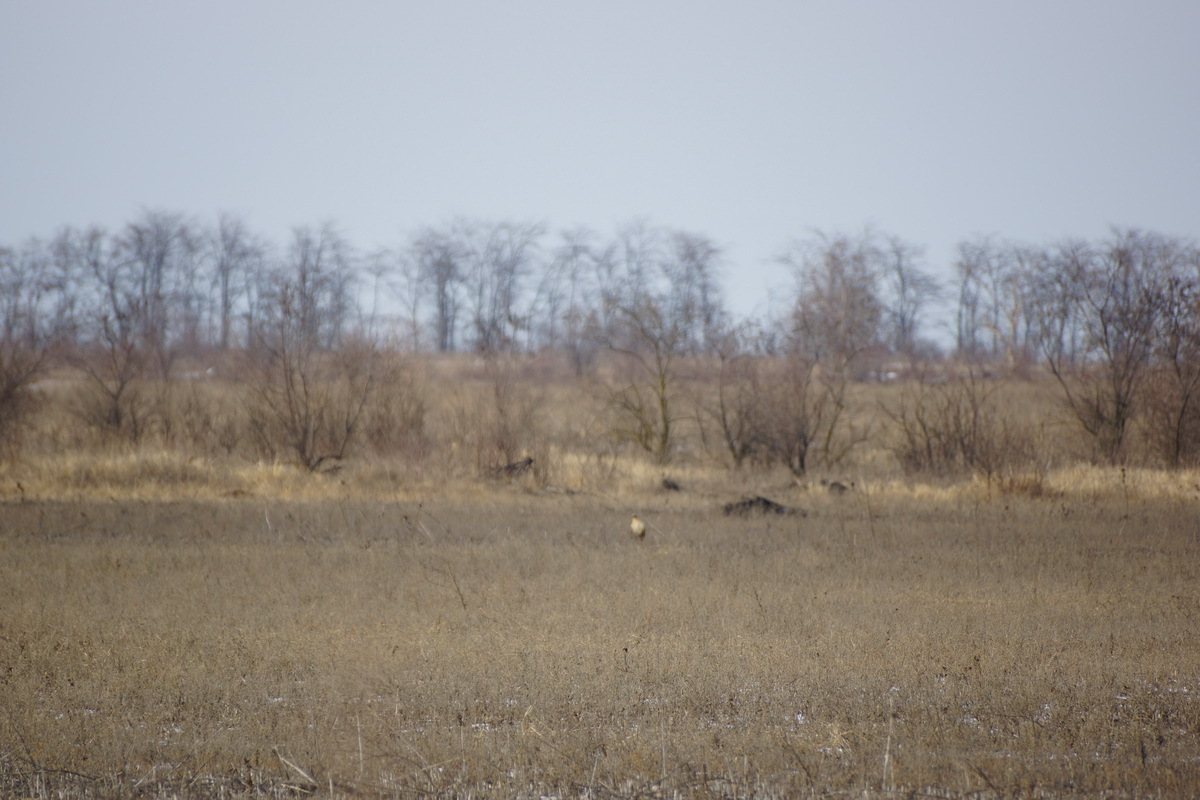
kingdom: Animalia
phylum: Chordata
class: Aves
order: Accipitriformes
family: Accipitridae
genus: Buteo
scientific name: Buteo rufinus
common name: Long-legged buzzard
